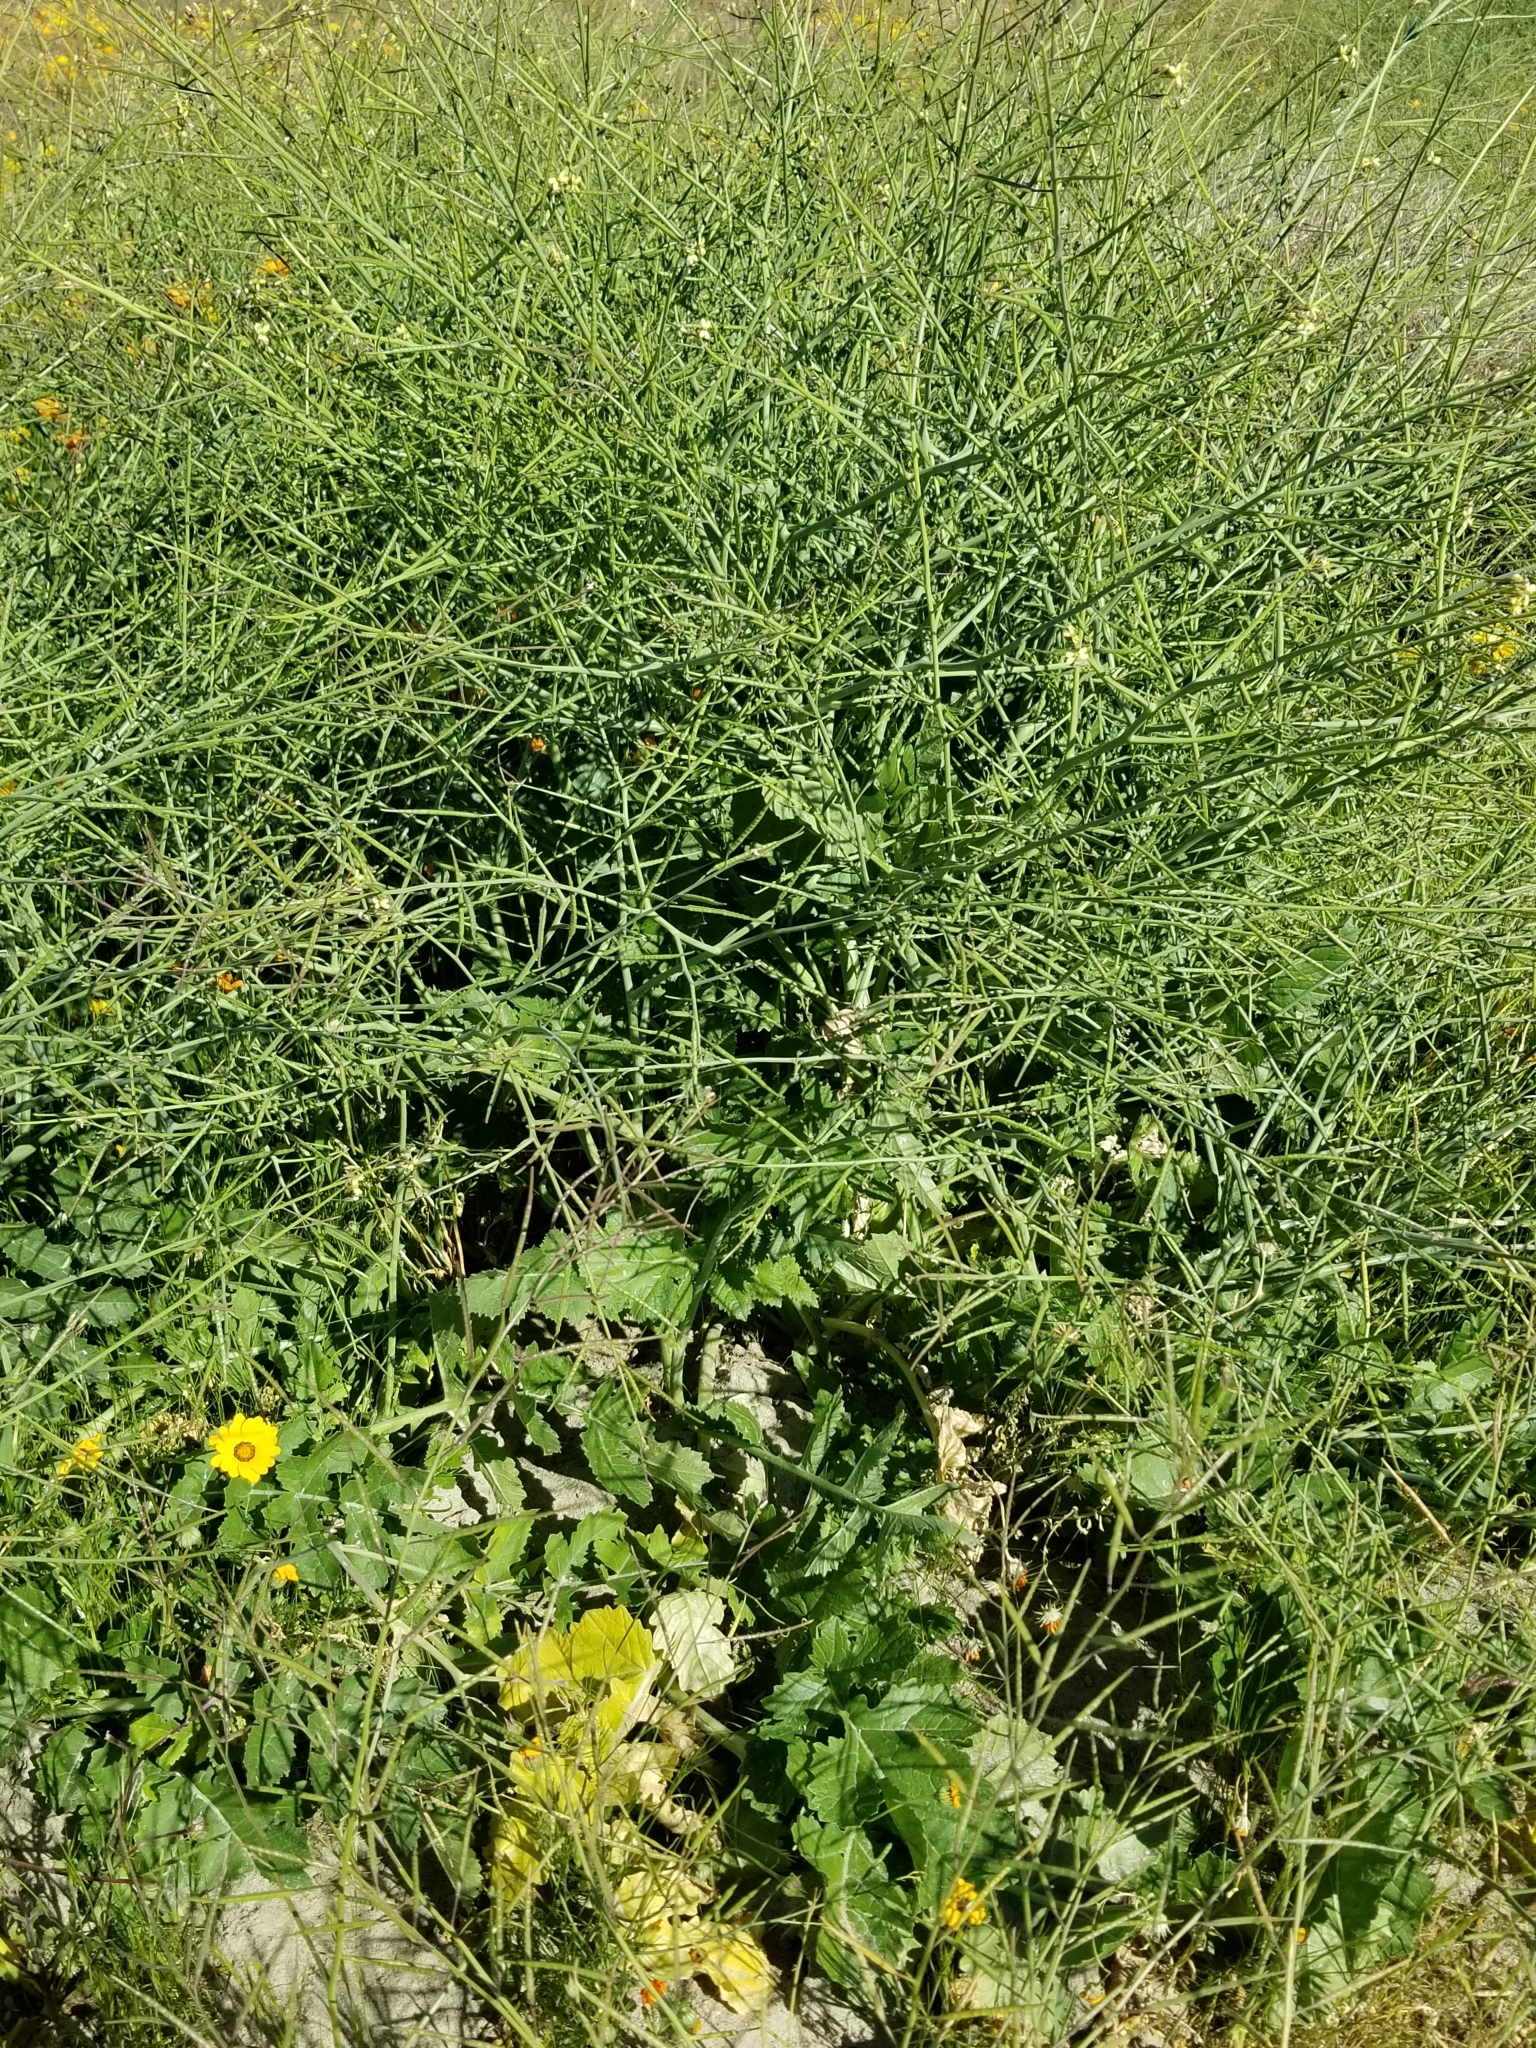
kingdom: Plantae
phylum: Tracheophyta
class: Magnoliopsida
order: Brassicales
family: Brassicaceae
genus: Brassica
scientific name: Brassica tournefortii
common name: Pale cabbage
